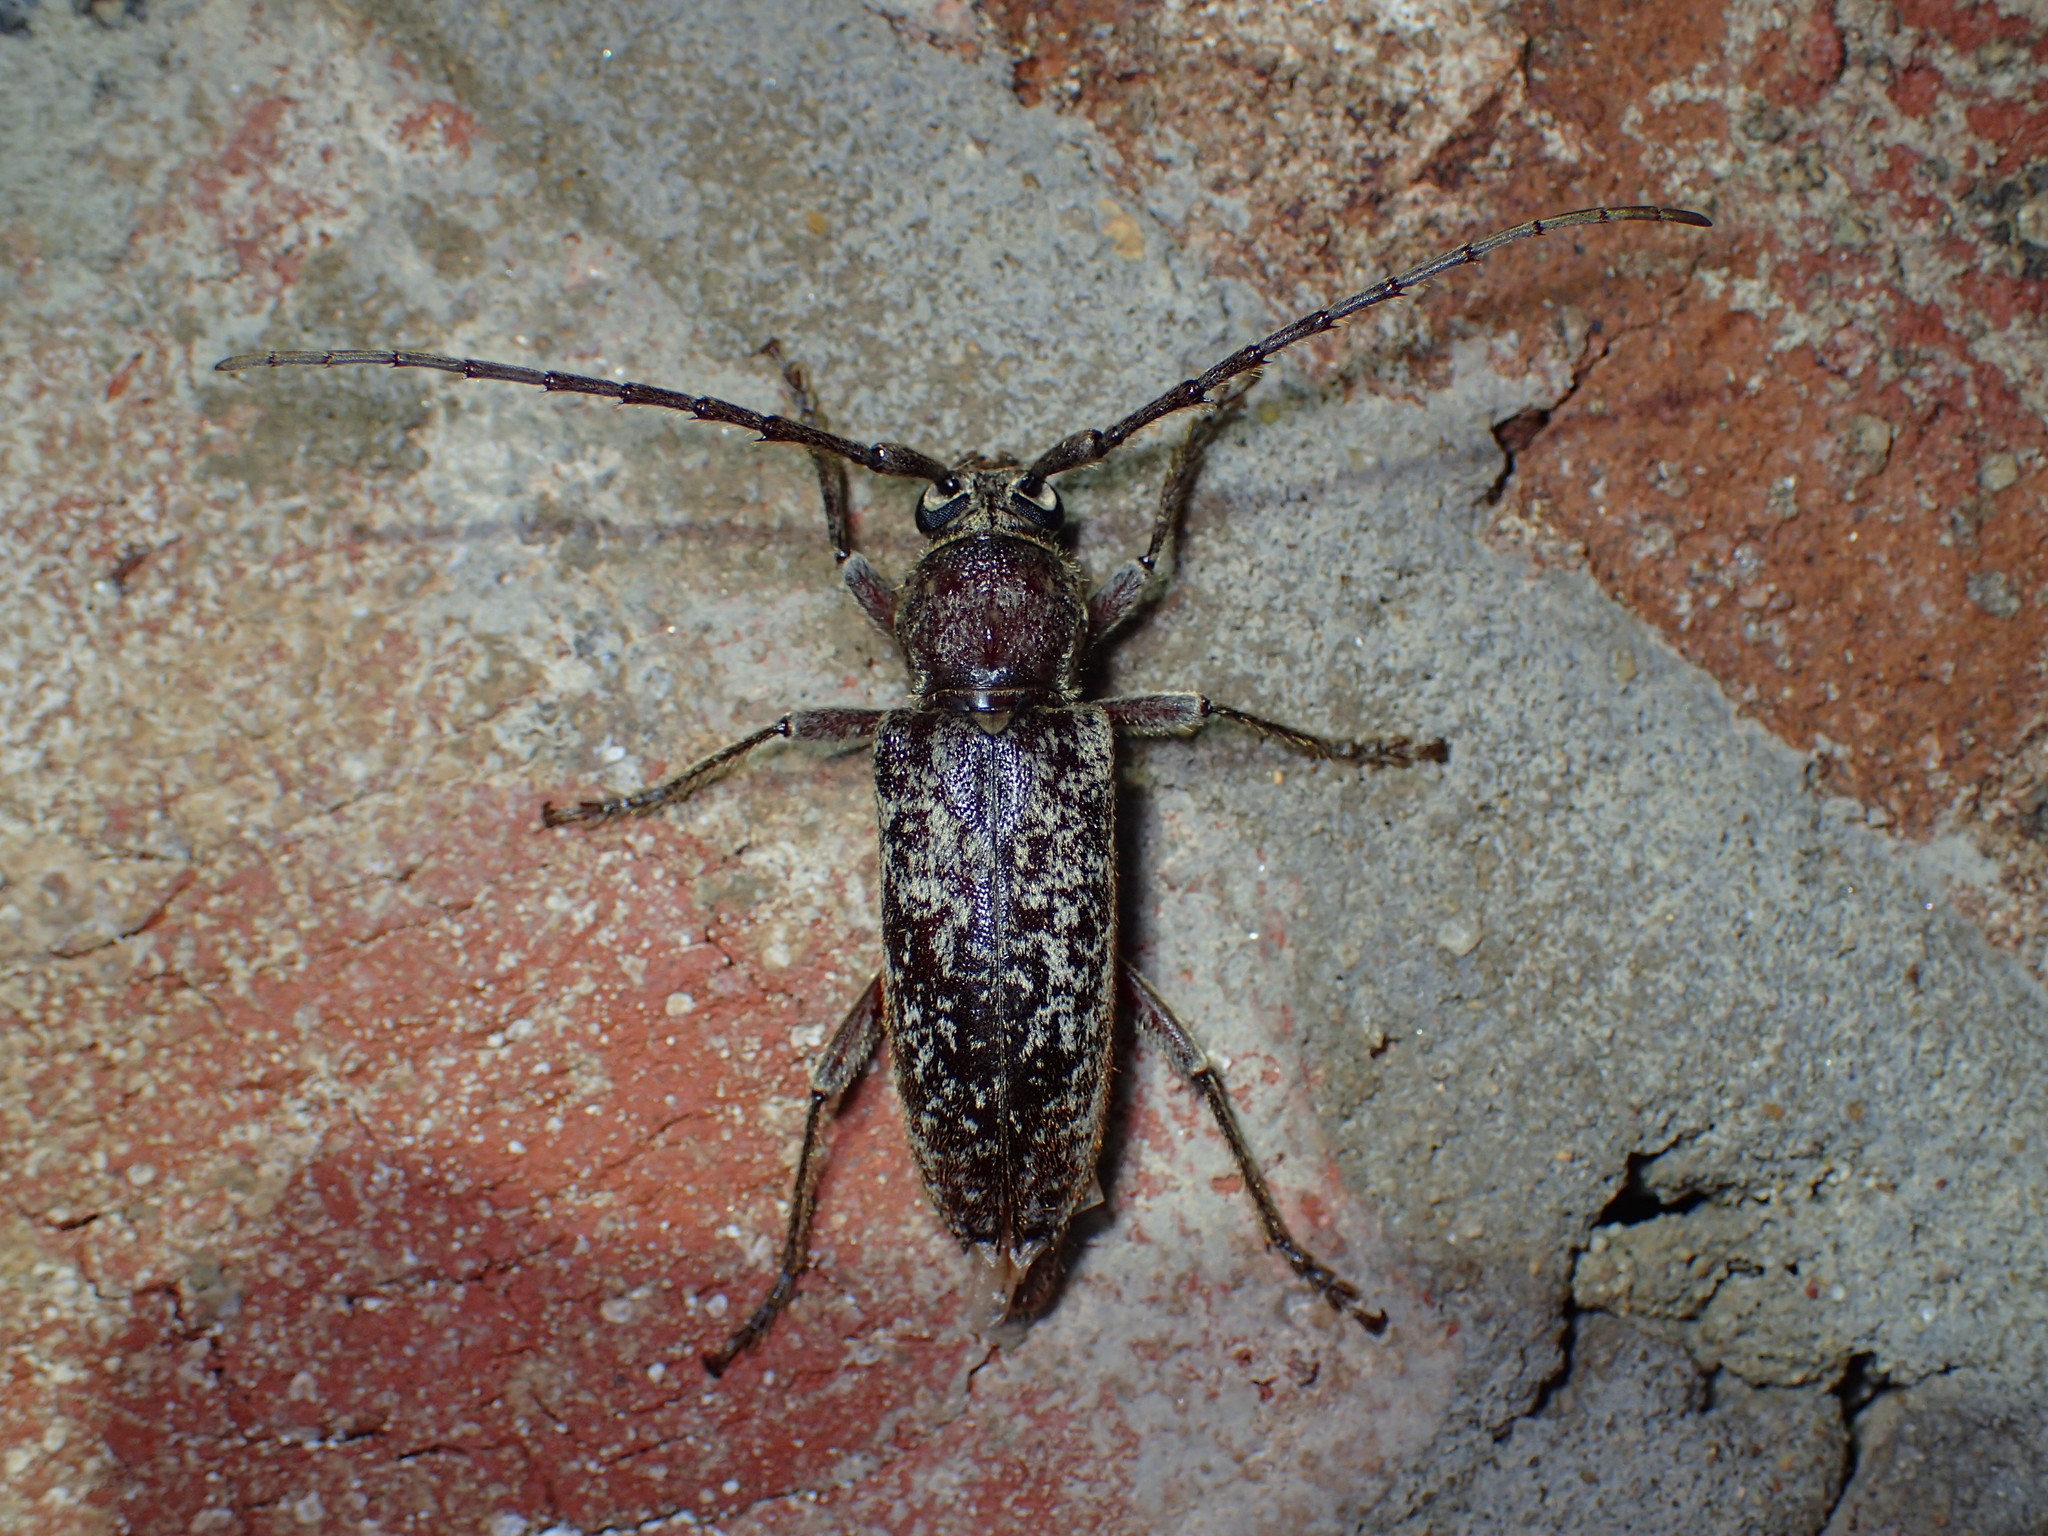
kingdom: Animalia
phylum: Arthropoda
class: Insecta
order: Coleoptera
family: Cerambycidae
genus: Enaphalodes
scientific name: Enaphalodes atomarius
